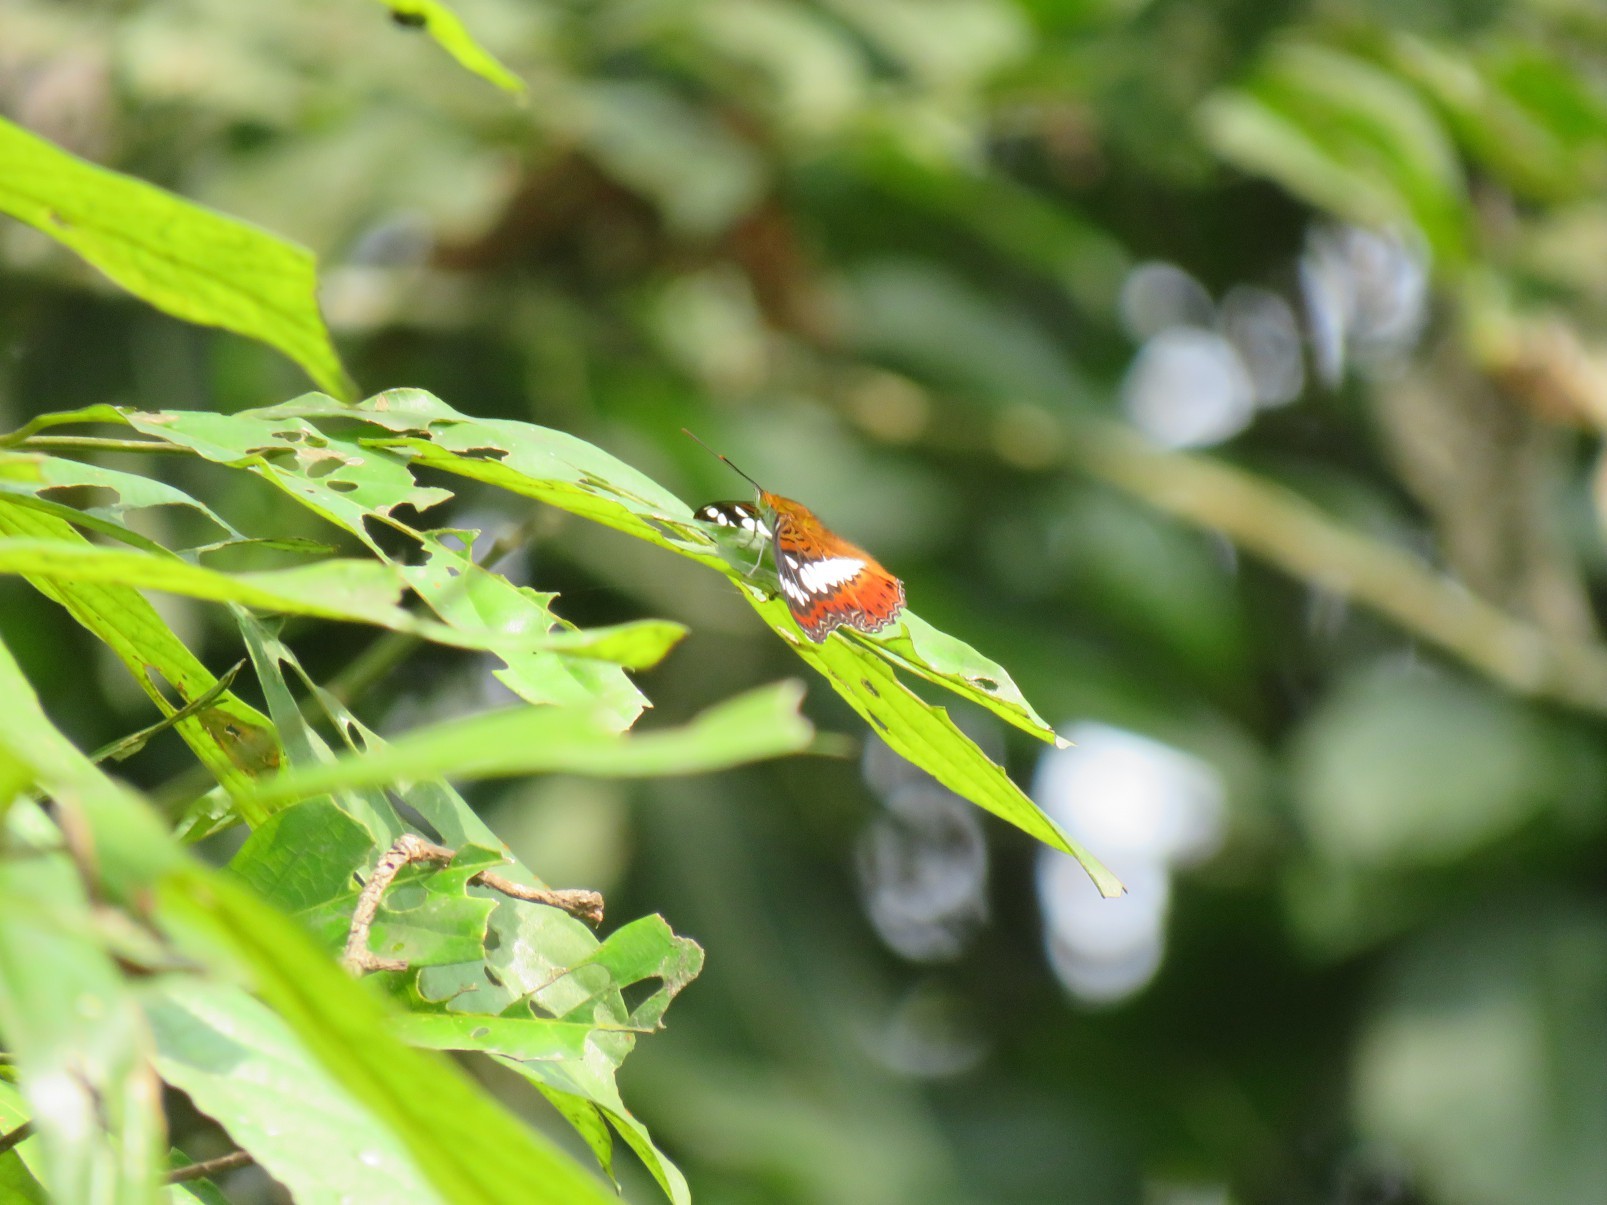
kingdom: Animalia
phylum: Arthropoda
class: Insecta
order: Lepidoptera
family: Nymphalidae
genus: Limenitis
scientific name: Limenitis Moduza procris
